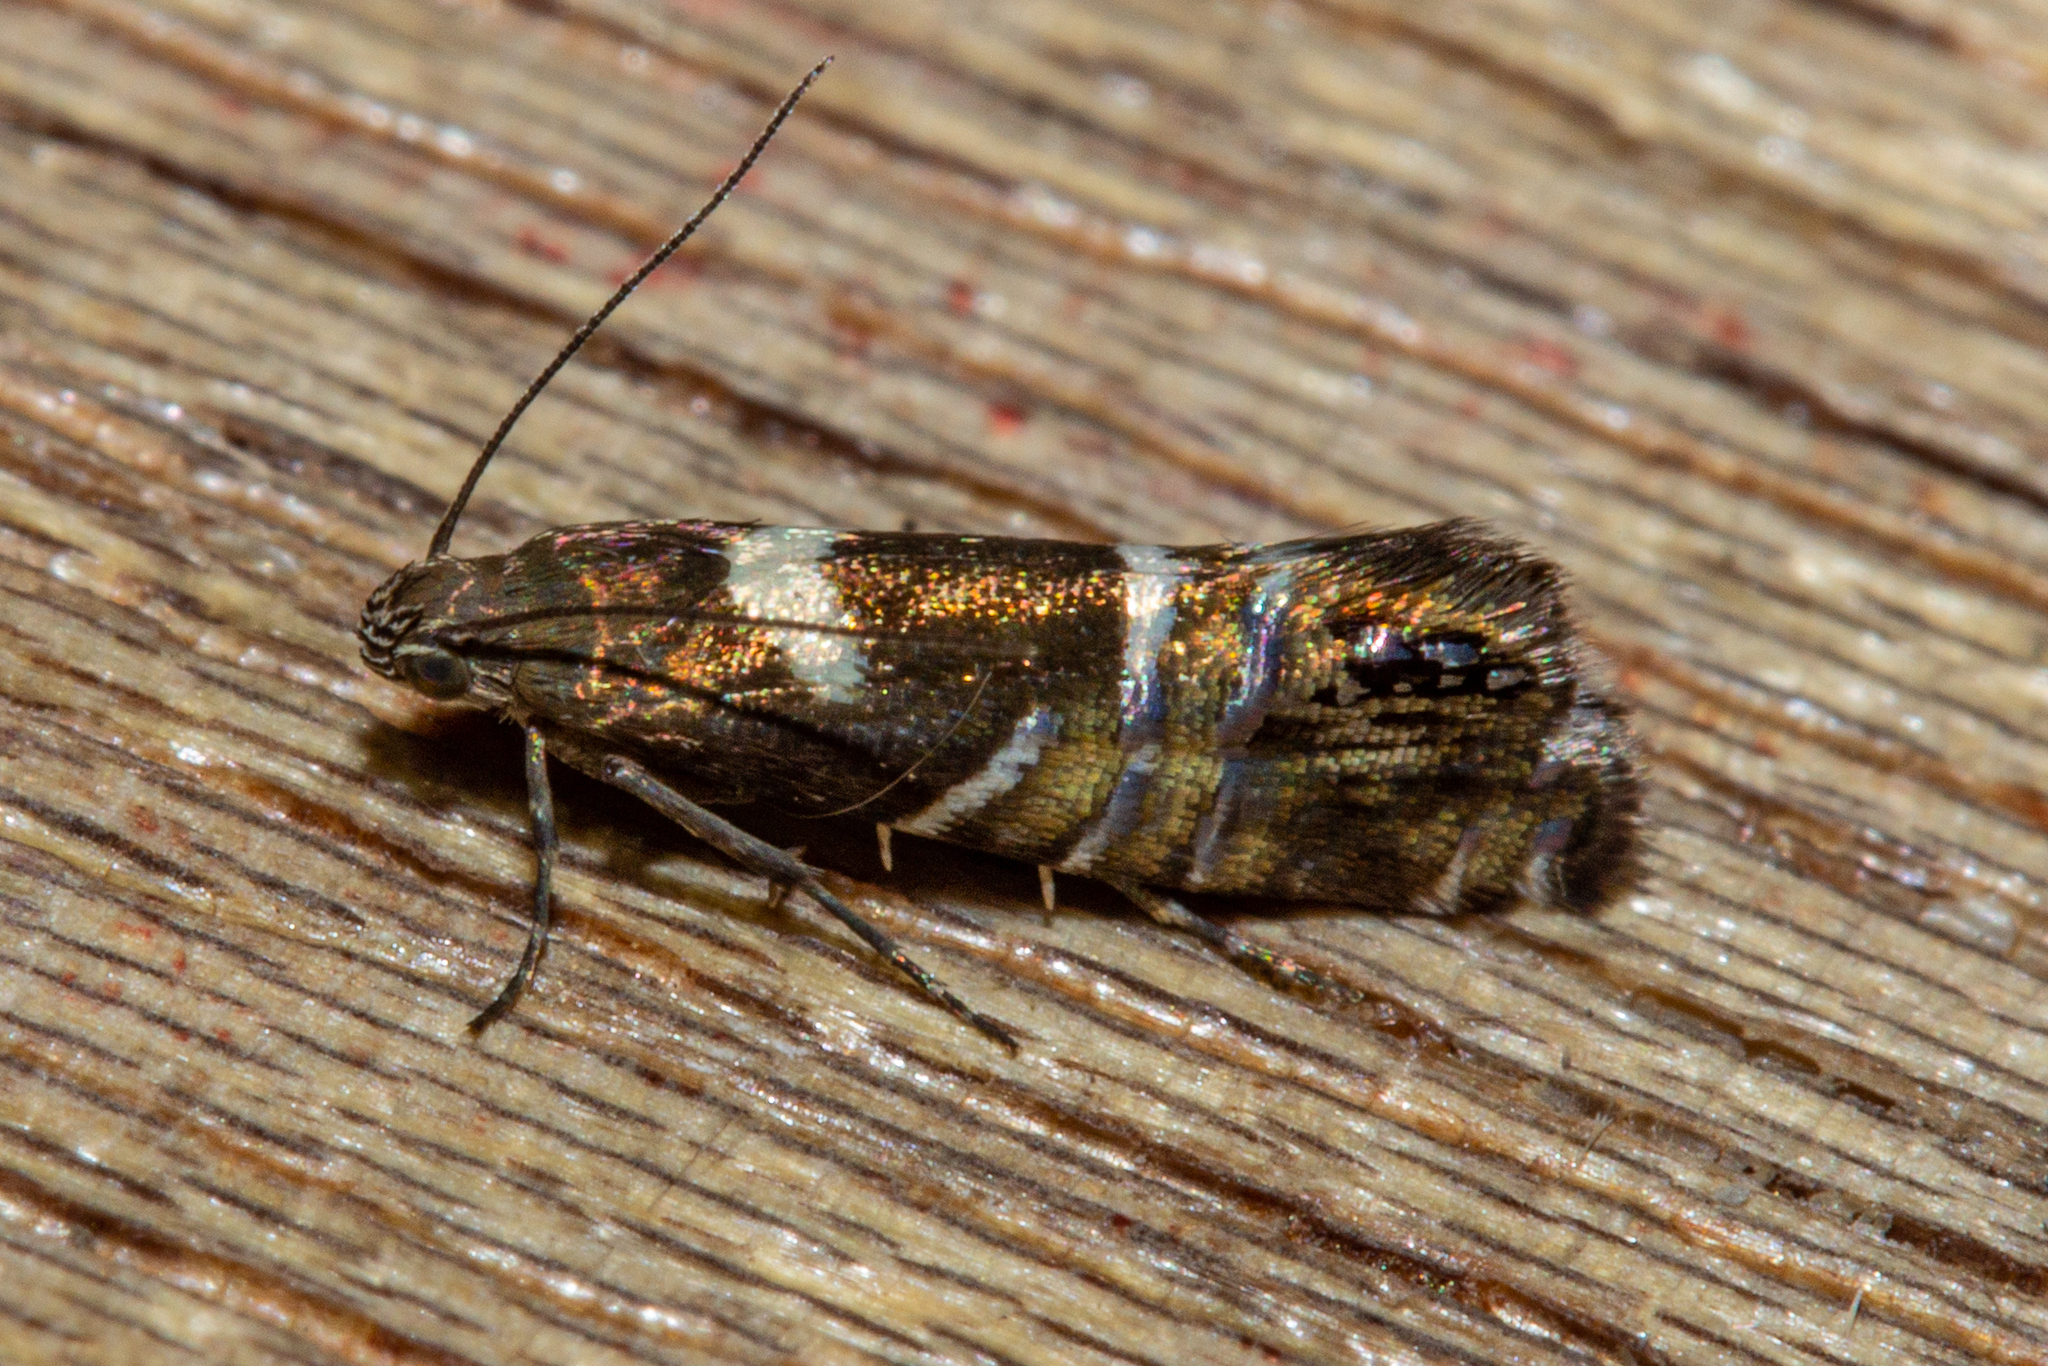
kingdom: Animalia
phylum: Arthropoda
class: Insecta
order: Lepidoptera
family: Glyphipterigidae
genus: Glyphipterix
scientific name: Glyphipterix zelota
